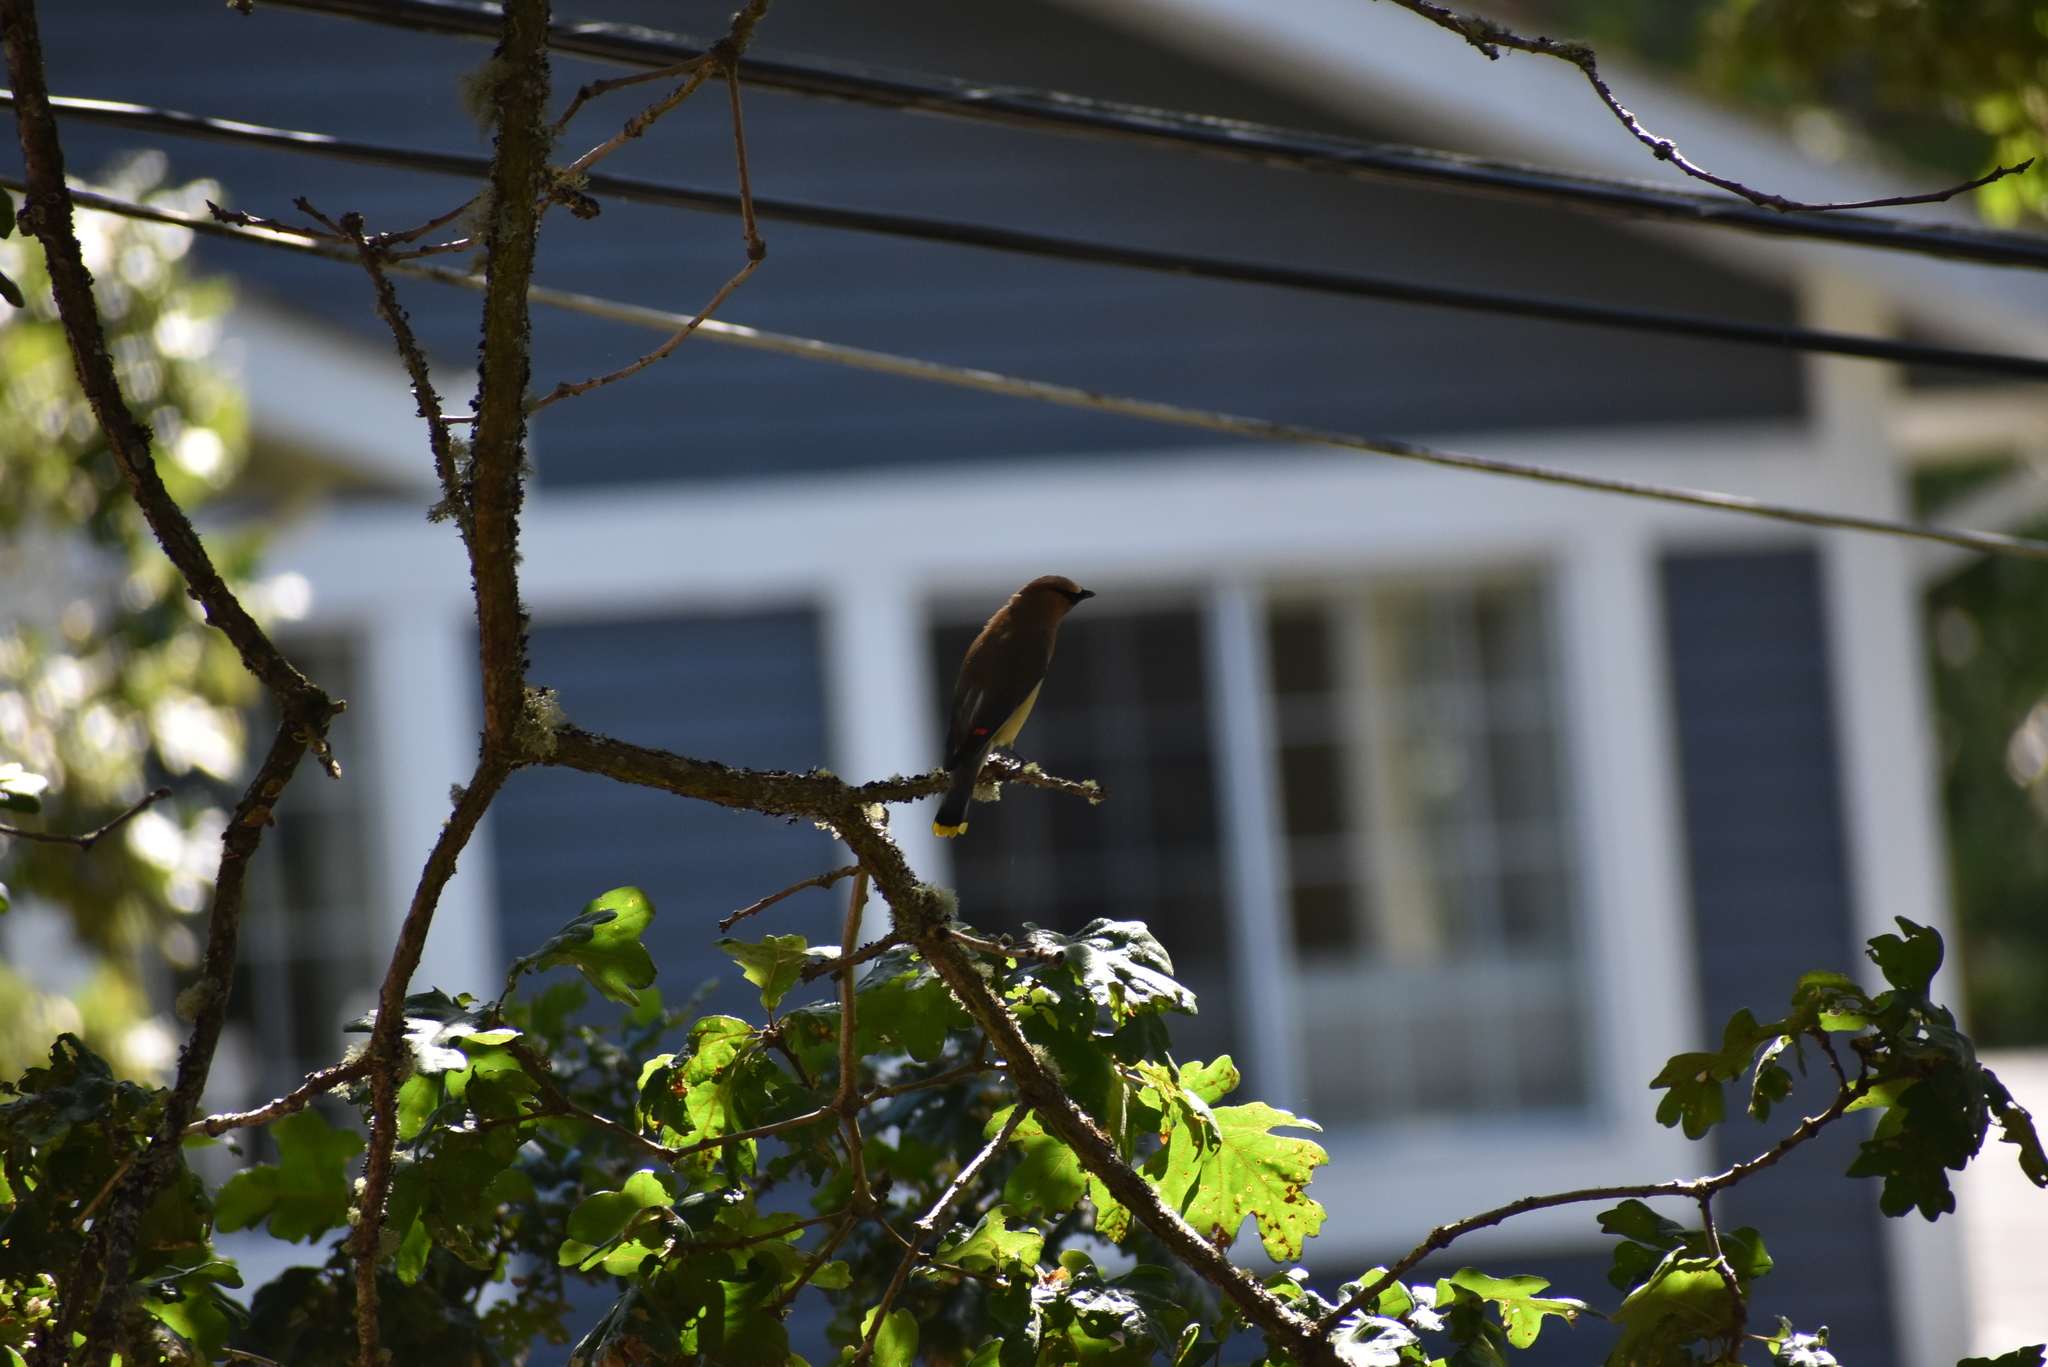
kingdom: Animalia
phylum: Chordata
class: Aves
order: Passeriformes
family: Bombycillidae
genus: Bombycilla
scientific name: Bombycilla cedrorum
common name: Cedar waxwing
